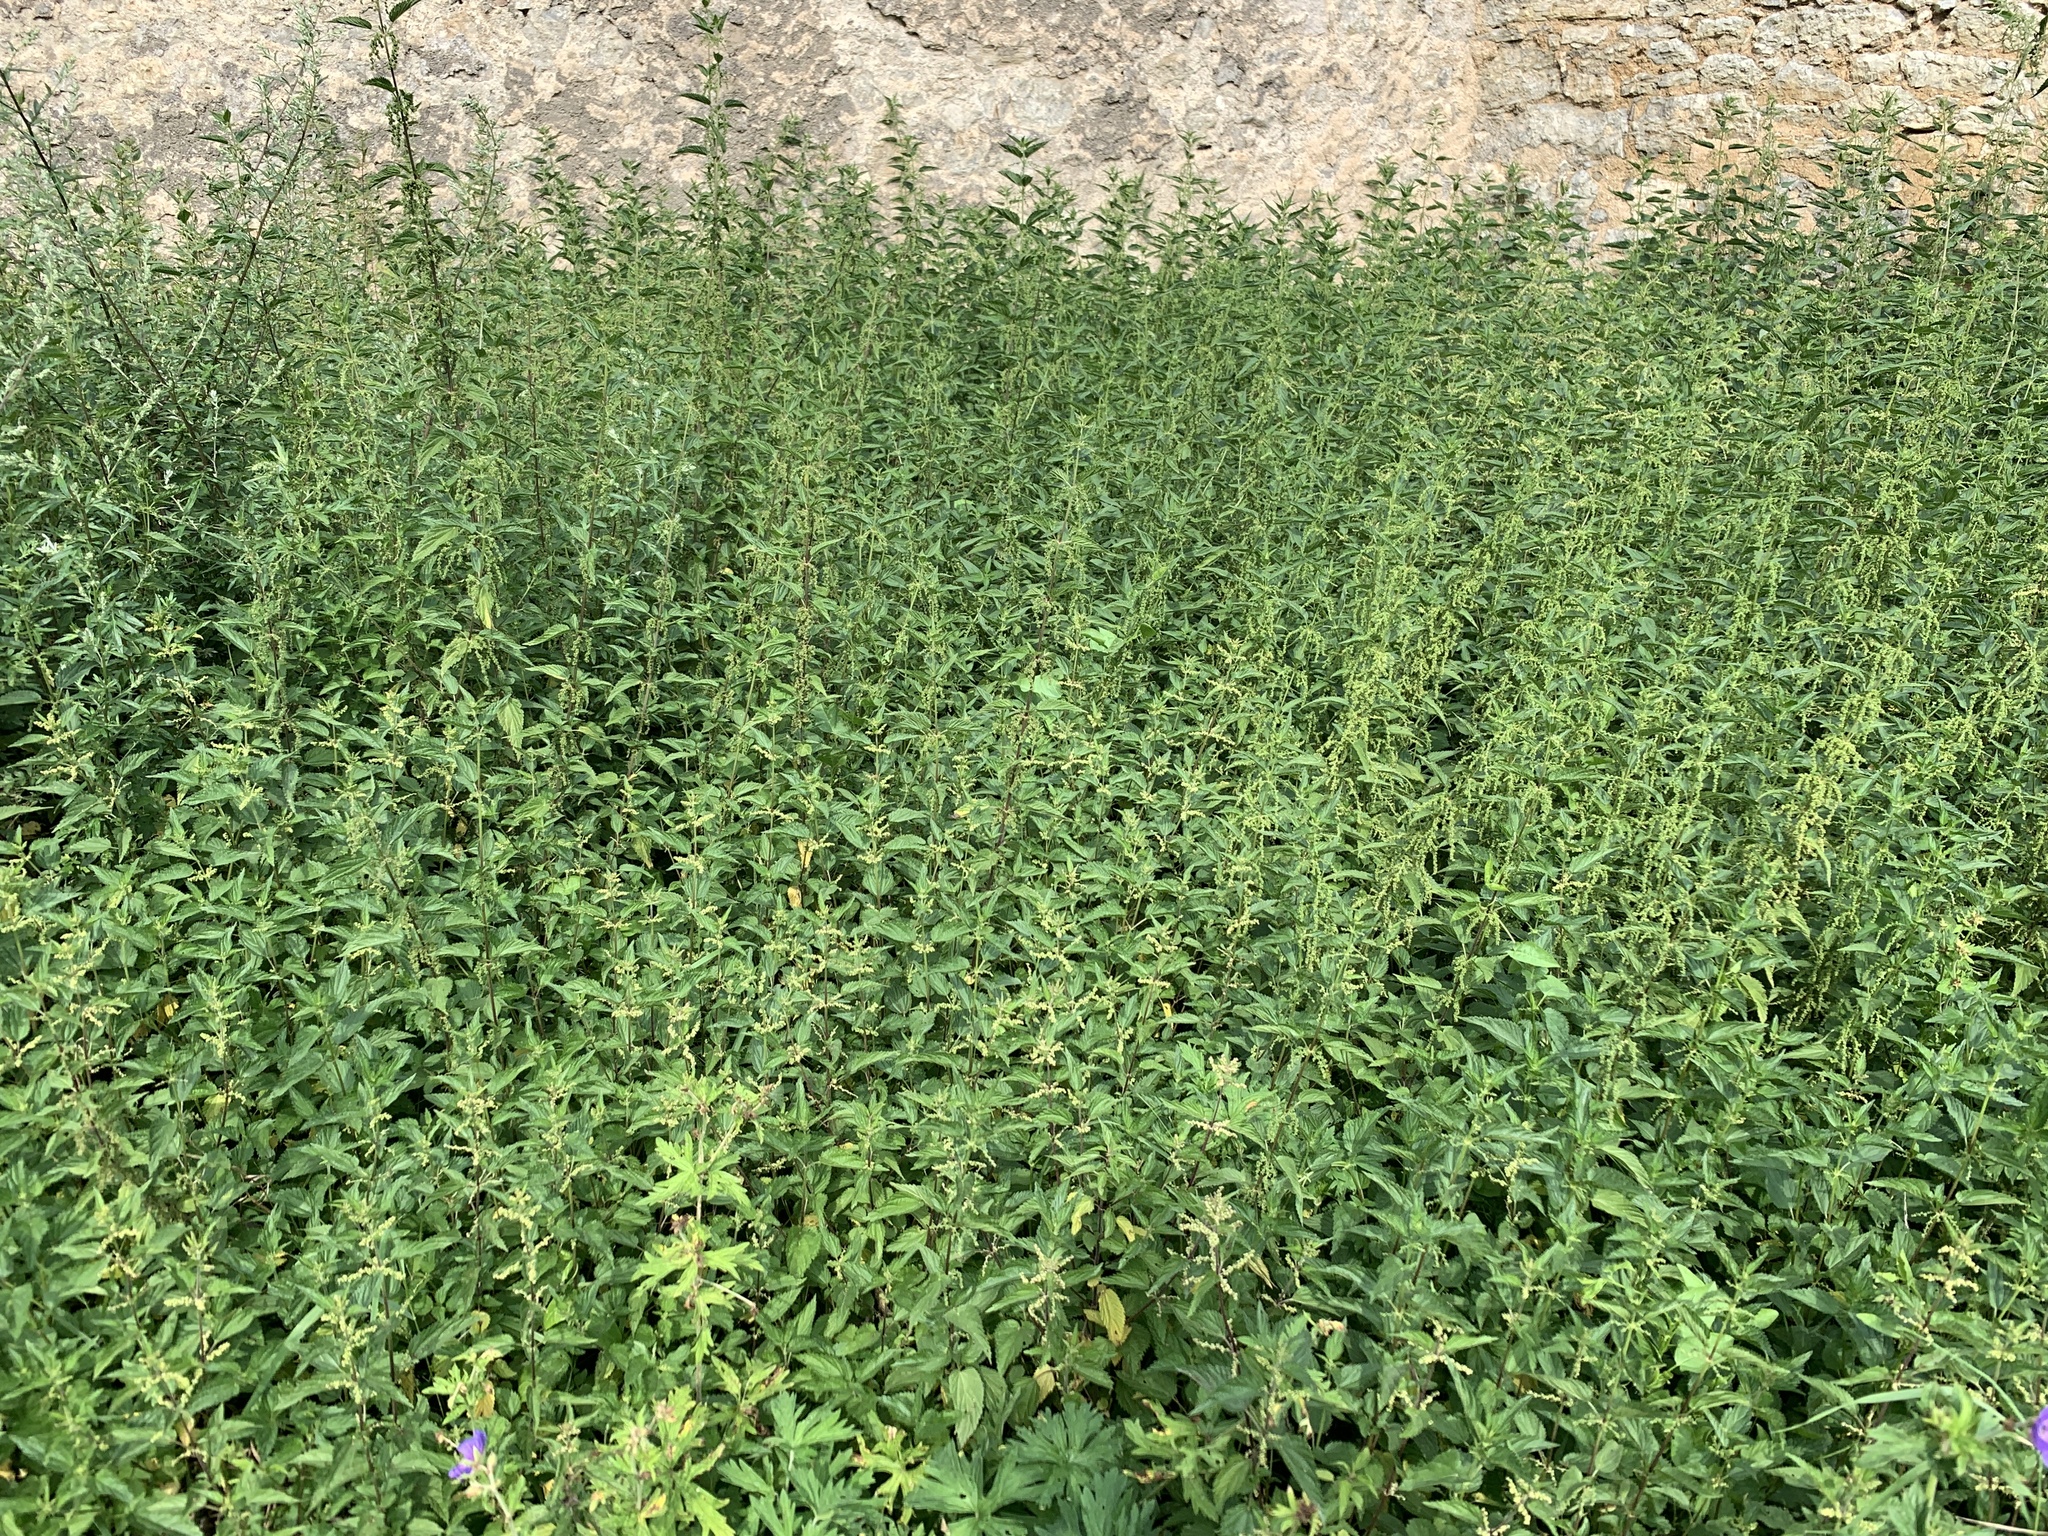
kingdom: Plantae
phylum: Tracheophyta
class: Magnoliopsida
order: Rosales
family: Urticaceae
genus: Urtica
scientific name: Urtica dioica
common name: Common nettle
